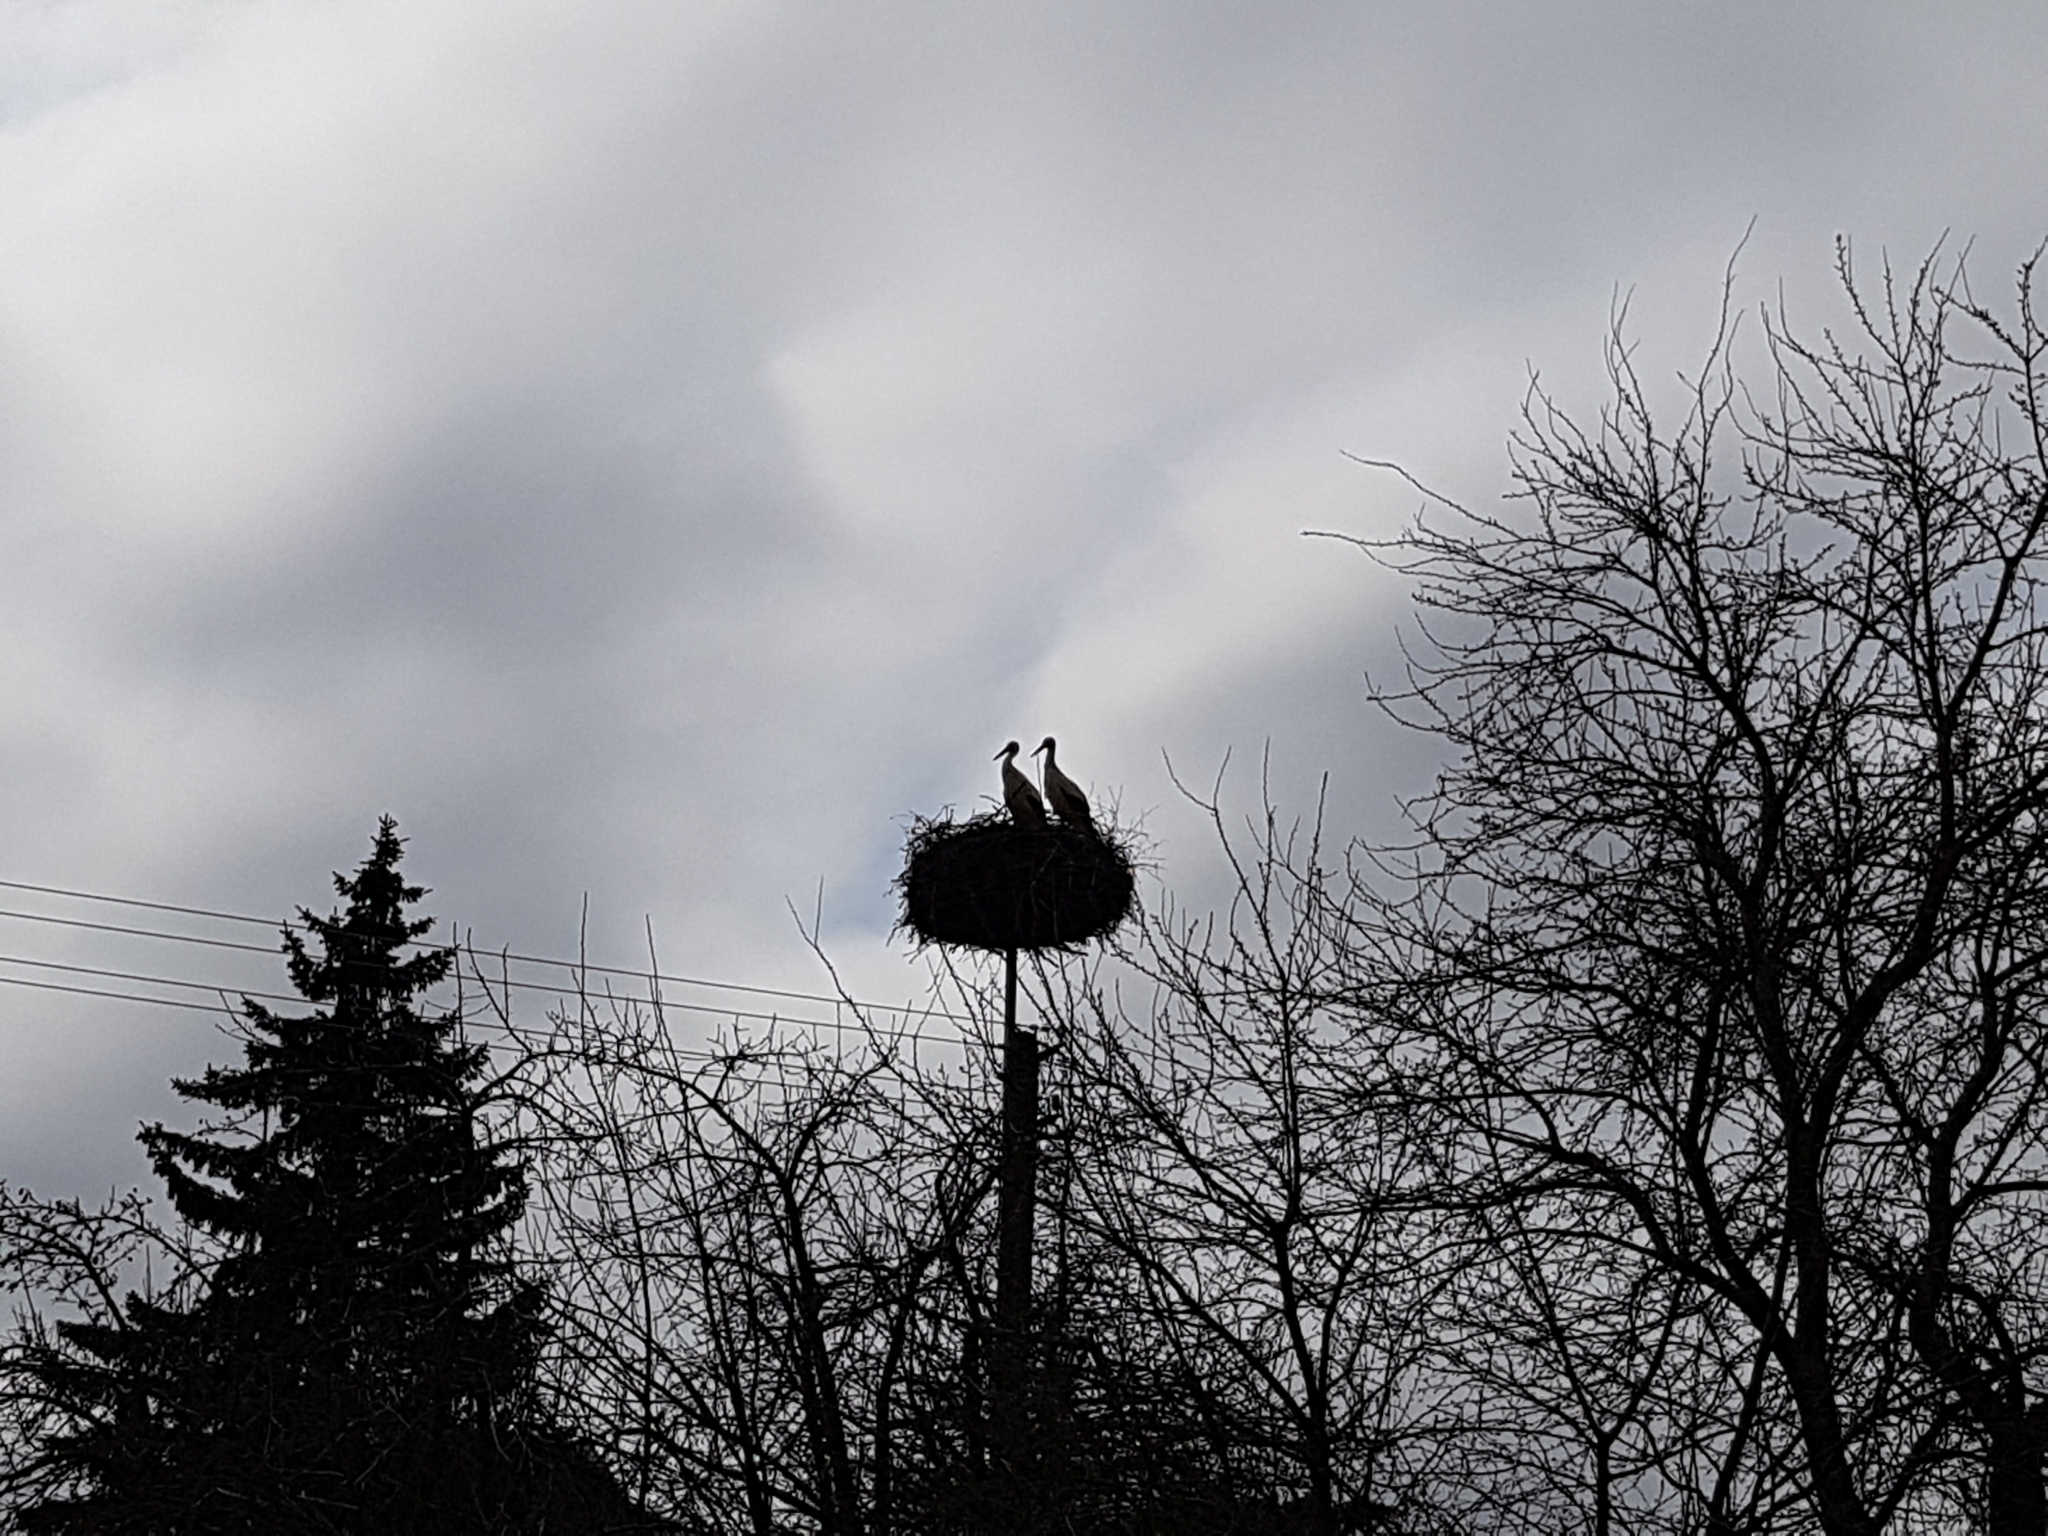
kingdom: Animalia
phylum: Chordata
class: Aves
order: Ciconiiformes
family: Ciconiidae
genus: Ciconia
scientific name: Ciconia ciconia
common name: White stork
